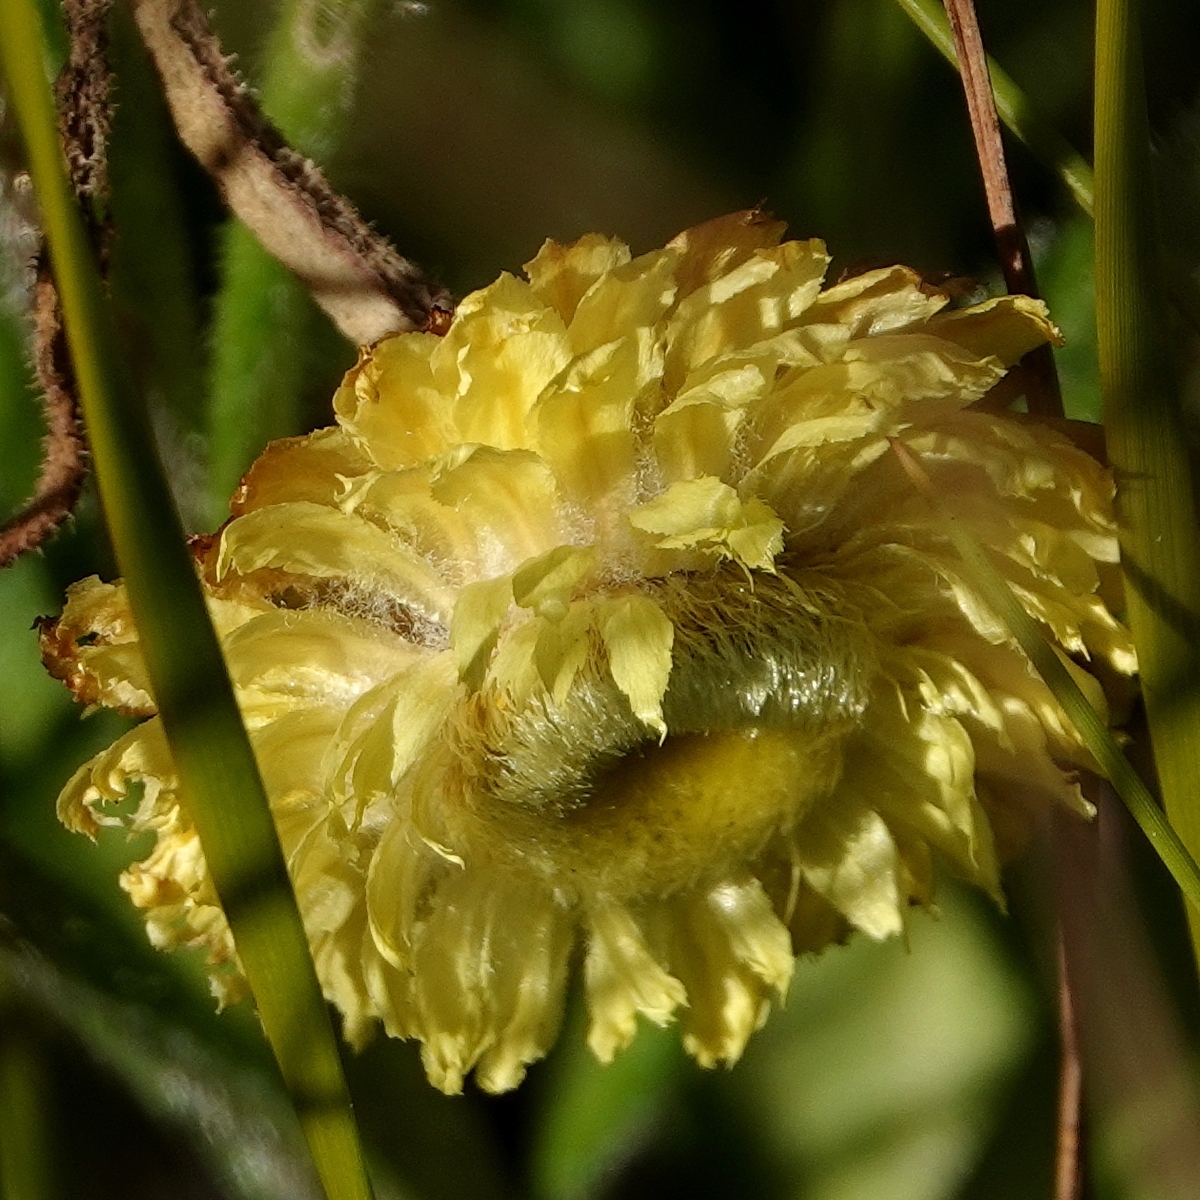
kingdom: Plantae
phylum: Tracheophyta
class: Magnoliopsida
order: Asterales
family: Asteraceae
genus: Coronidium
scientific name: Coronidium scorpioides
